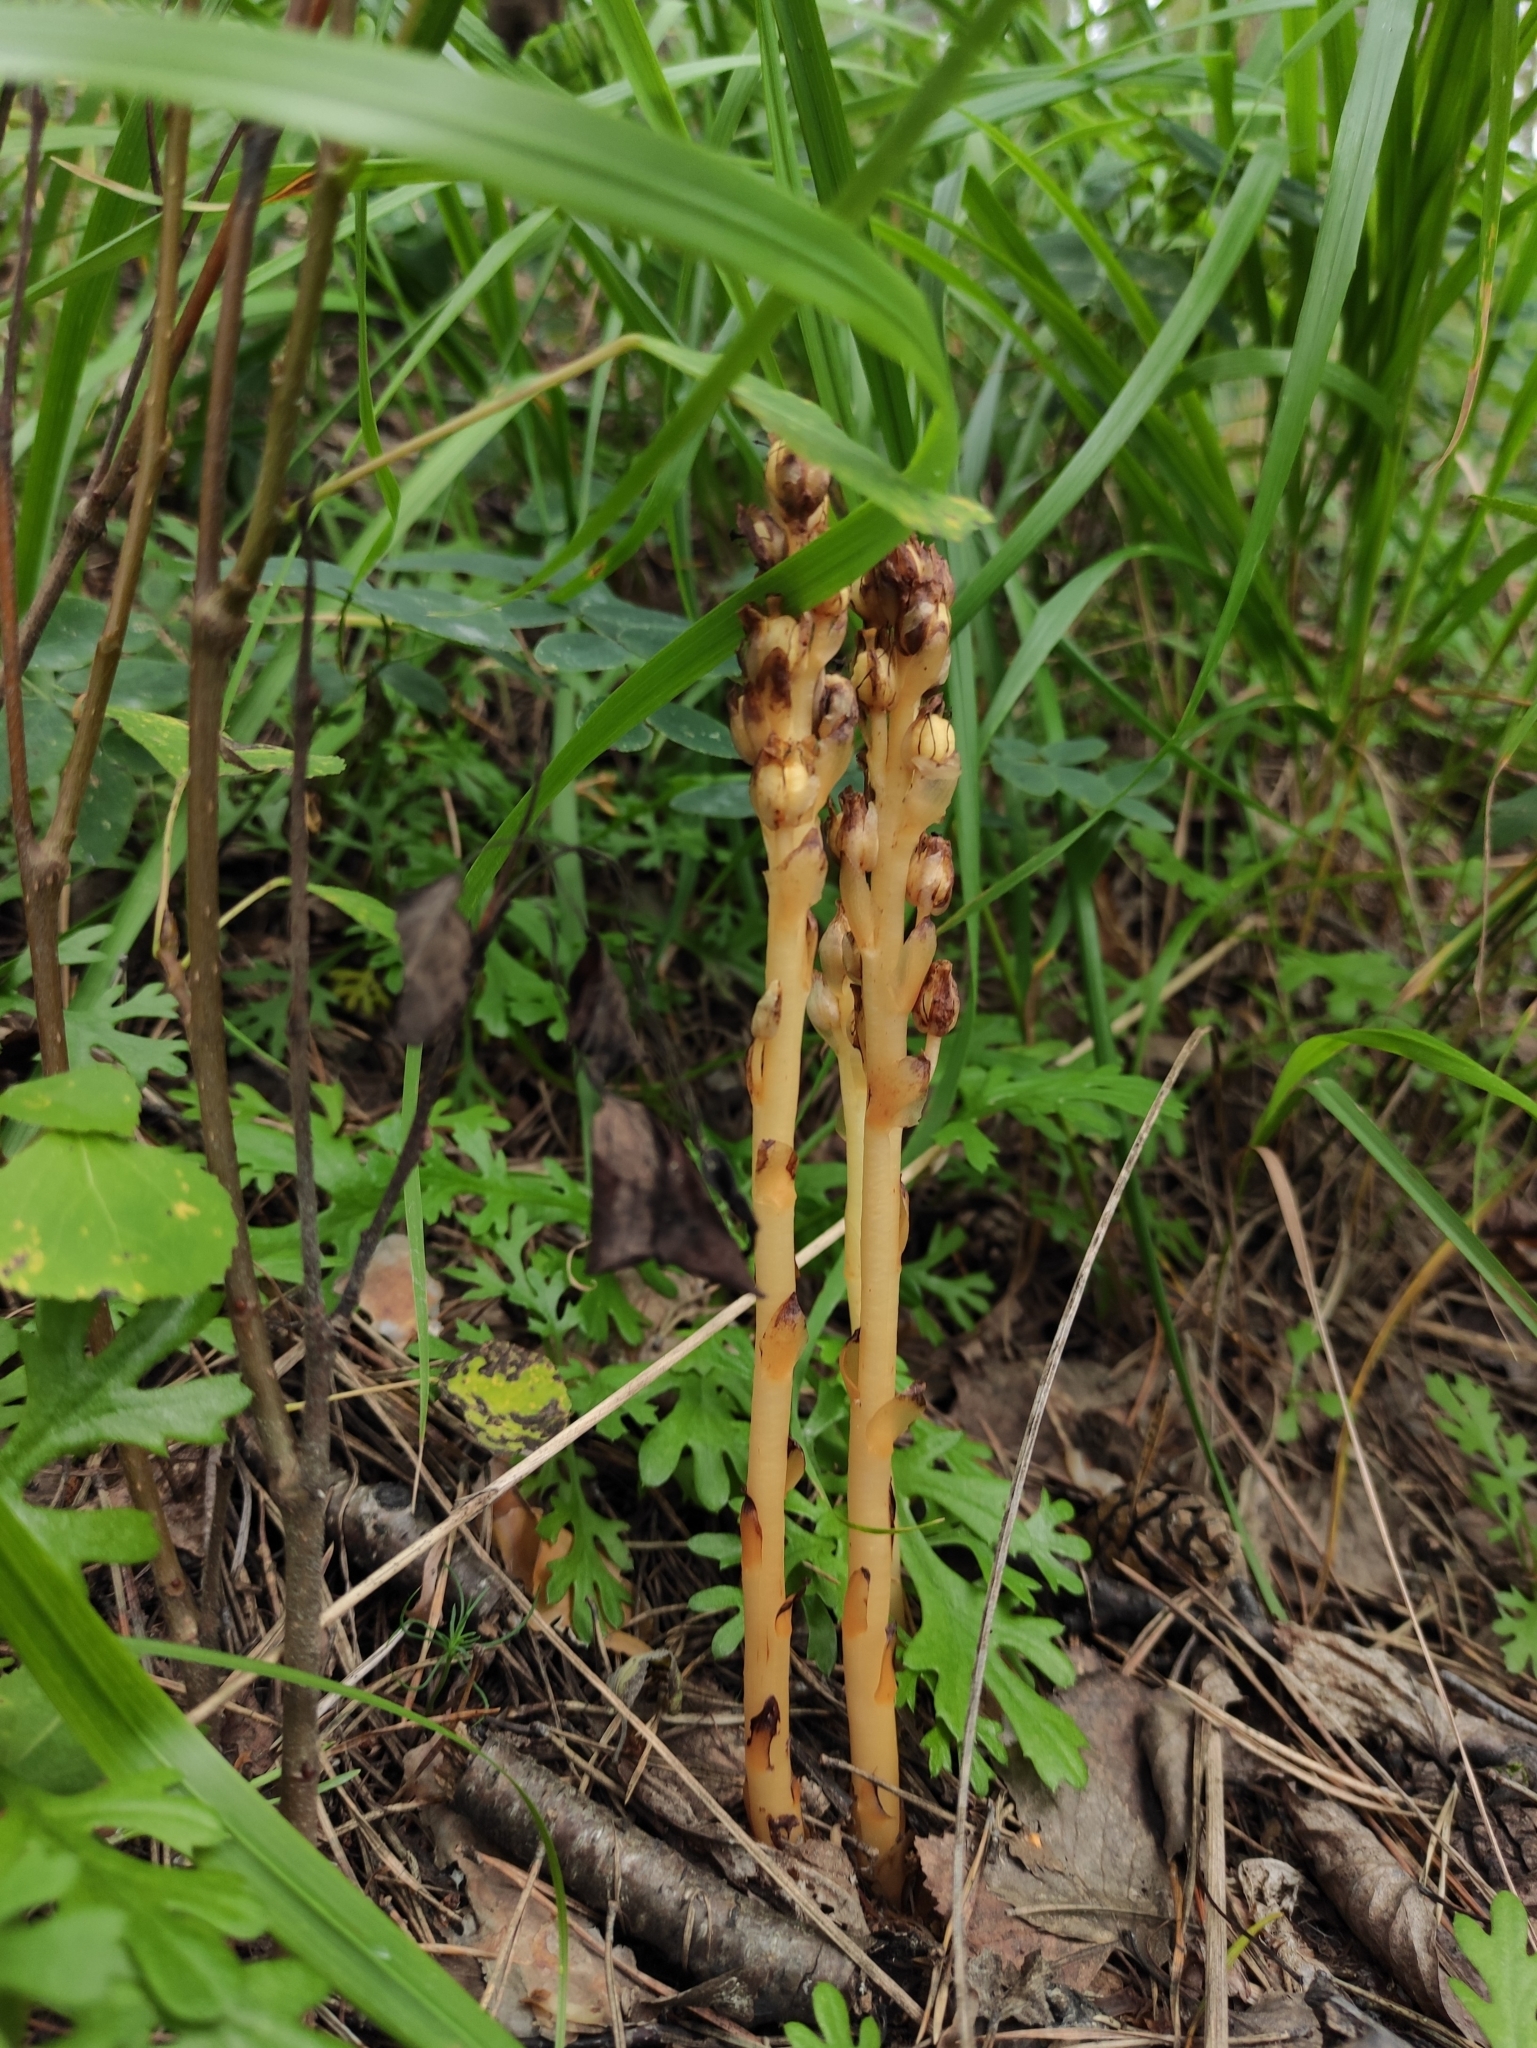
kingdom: Plantae
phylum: Tracheophyta
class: Magnoliopsida
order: Ericales
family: Ericaceae
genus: Hypopitys
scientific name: Hypopitys monotropa
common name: Yellow bird's-nest
